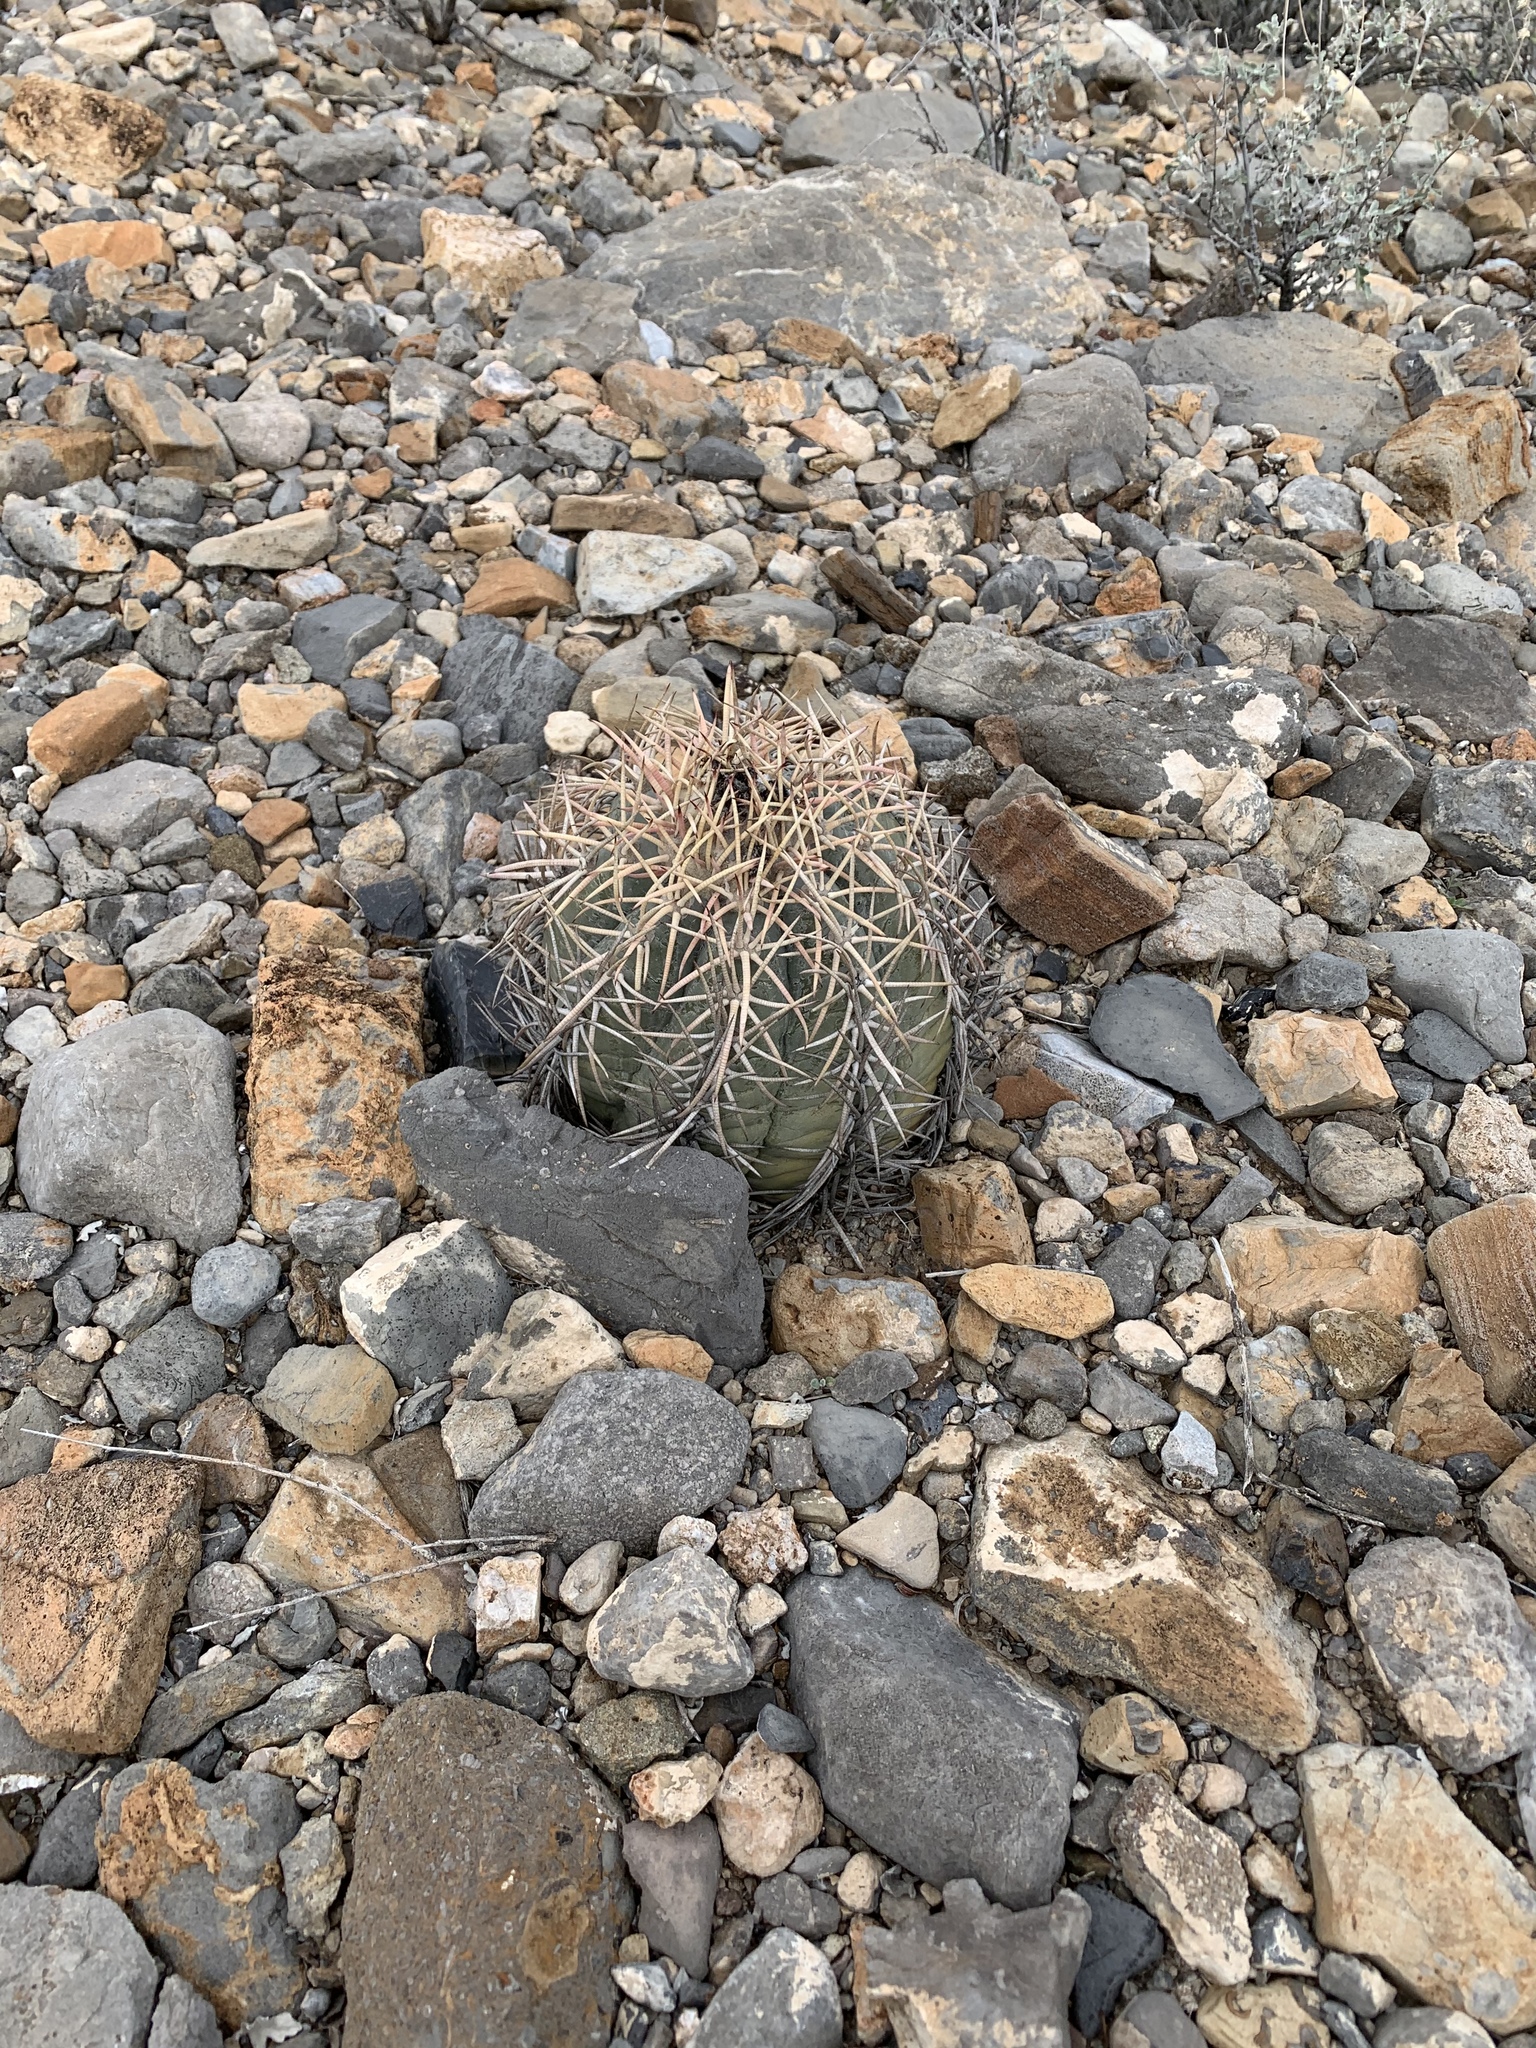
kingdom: Plantae
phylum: Tracheophyta
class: Magnoliopsida
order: Caryophyllales
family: Cactaceae
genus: Echinocactus
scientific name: Echinocactus horizonthalonius
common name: Devilshead
